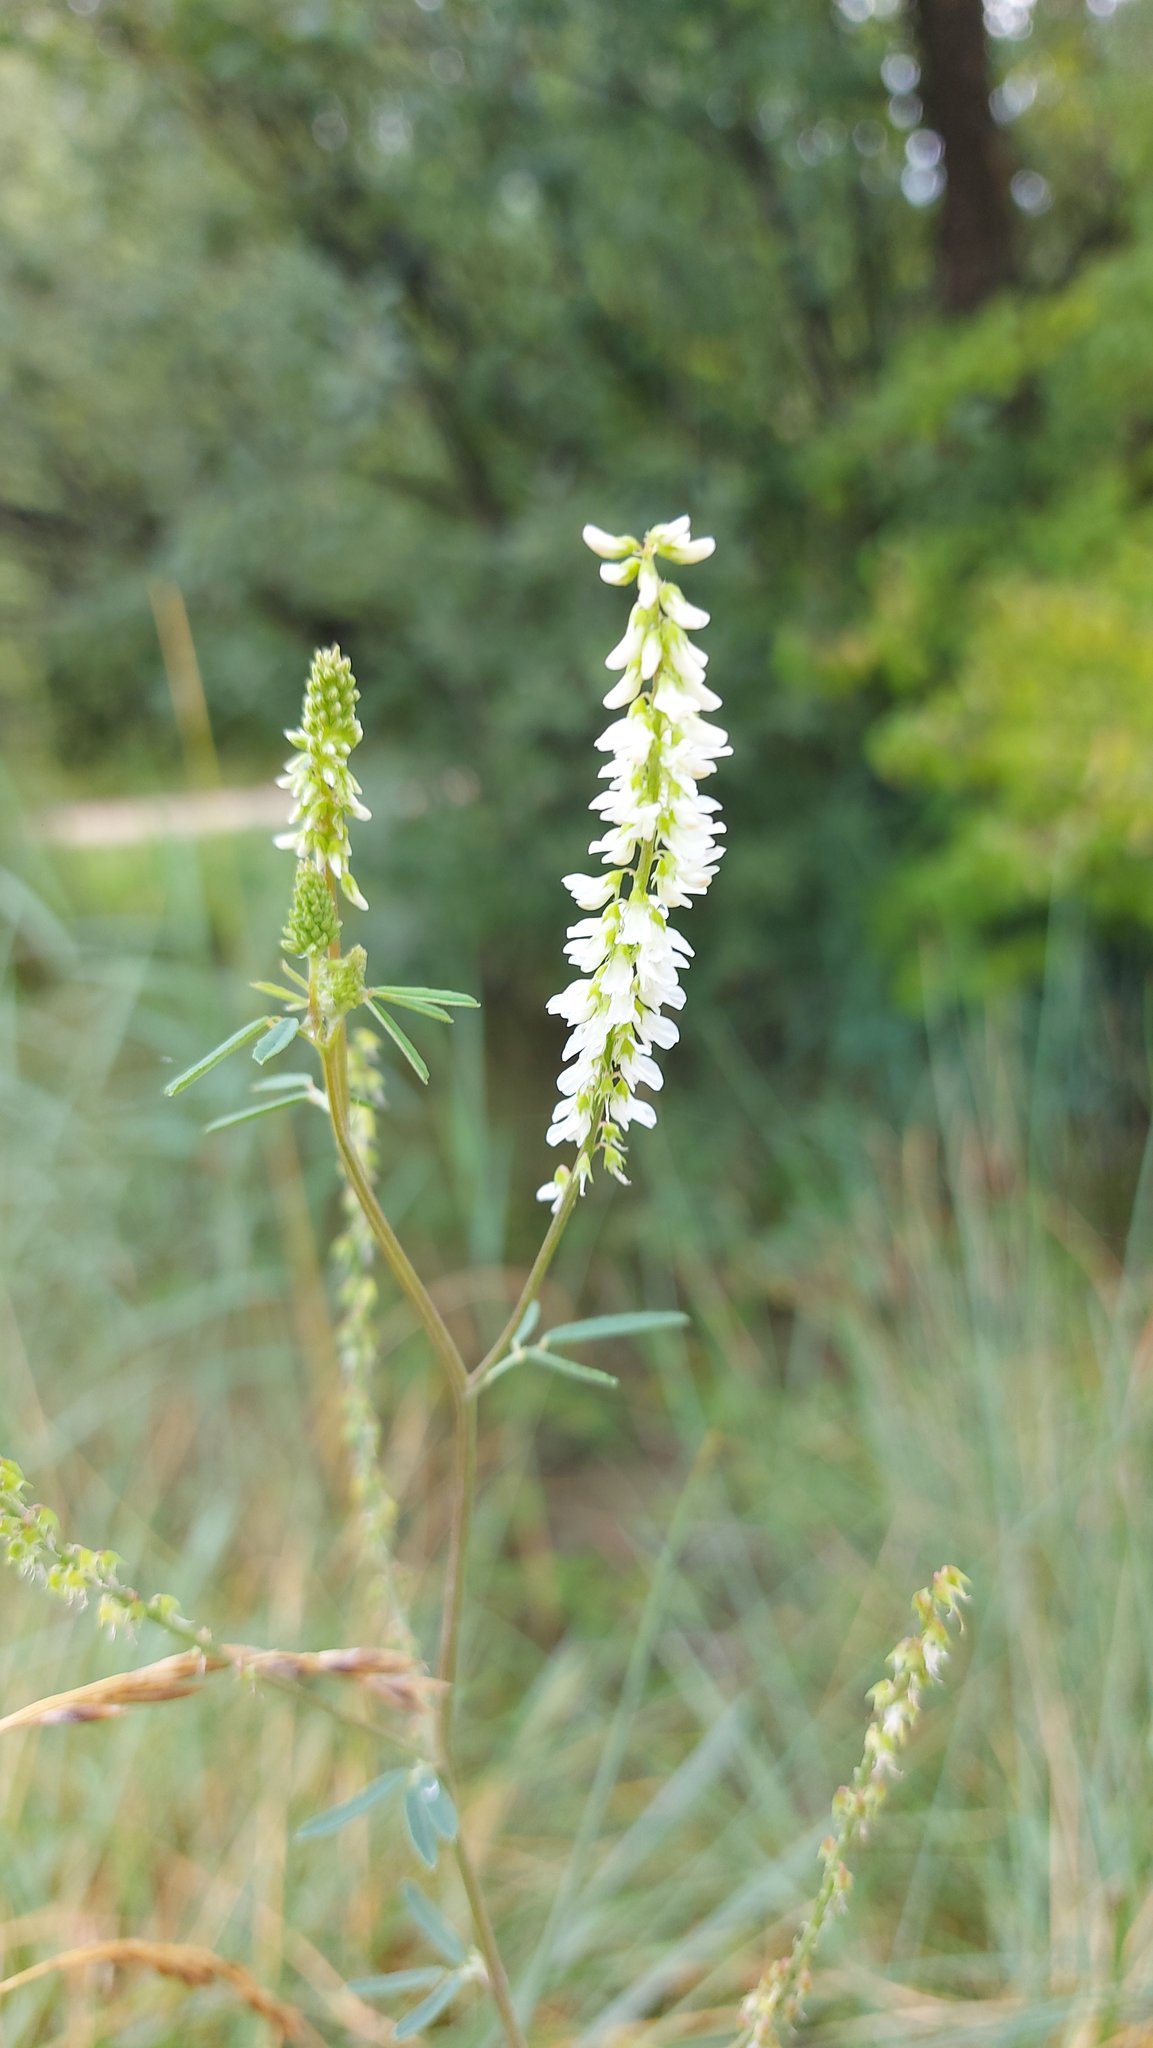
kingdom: Plantae
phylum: Tracheophyta
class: Magnoliopsida
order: Fabales
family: Fabaceae
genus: Melilotus
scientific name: Melilotus albus
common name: White melilot
